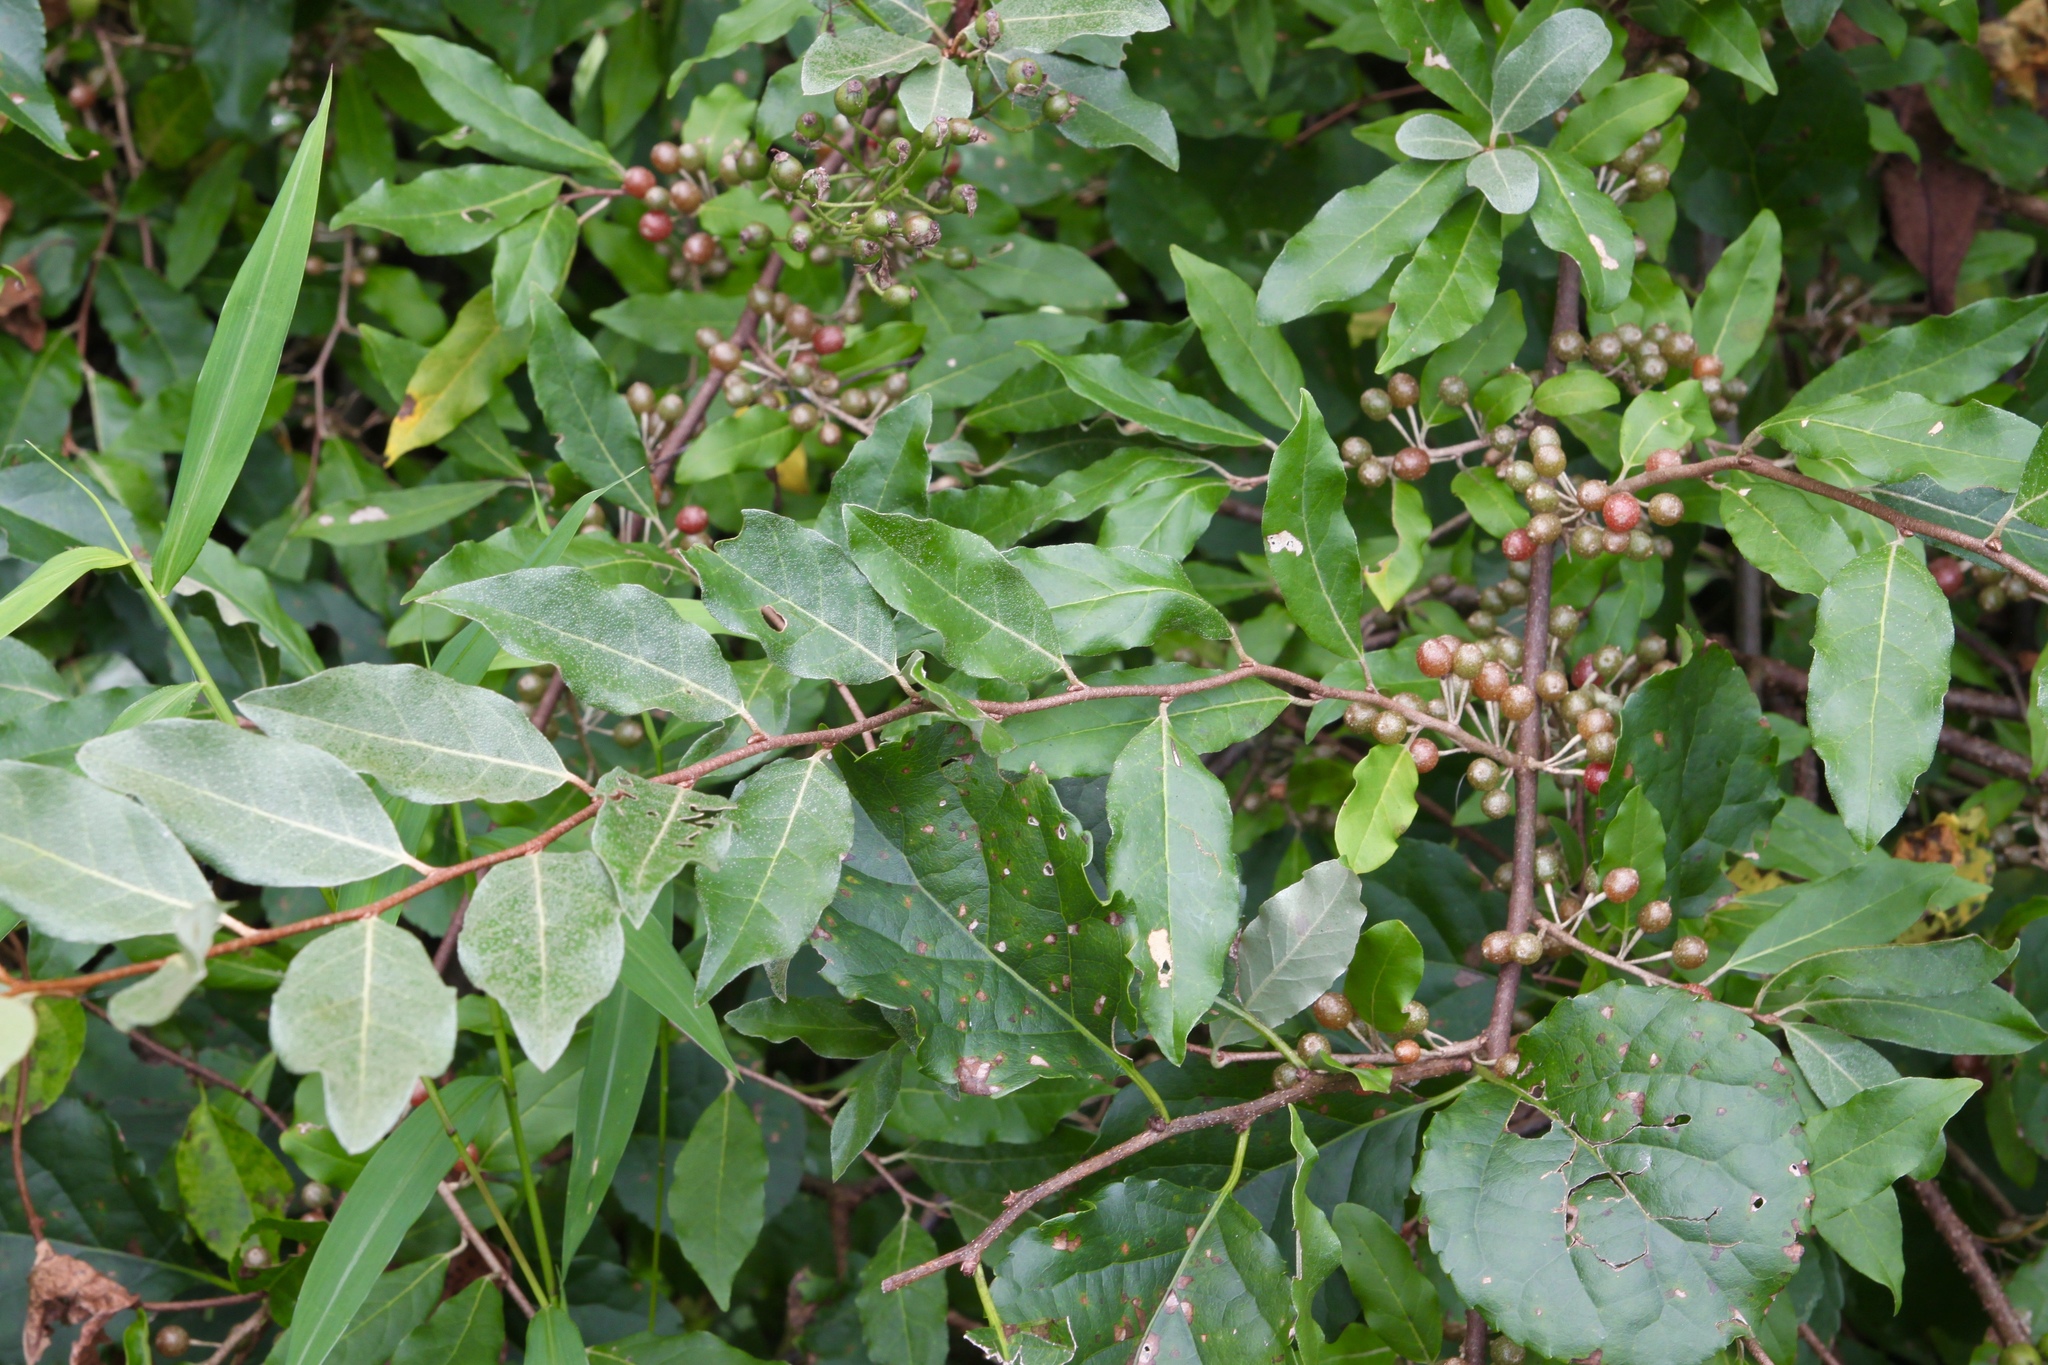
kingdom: Plantae
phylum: Tracheophyta
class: Magnoliopsida
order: Rosales
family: Elaeagnaceae
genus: Elaeagnus
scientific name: Elaeagnus umbellata
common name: Autumn olive
